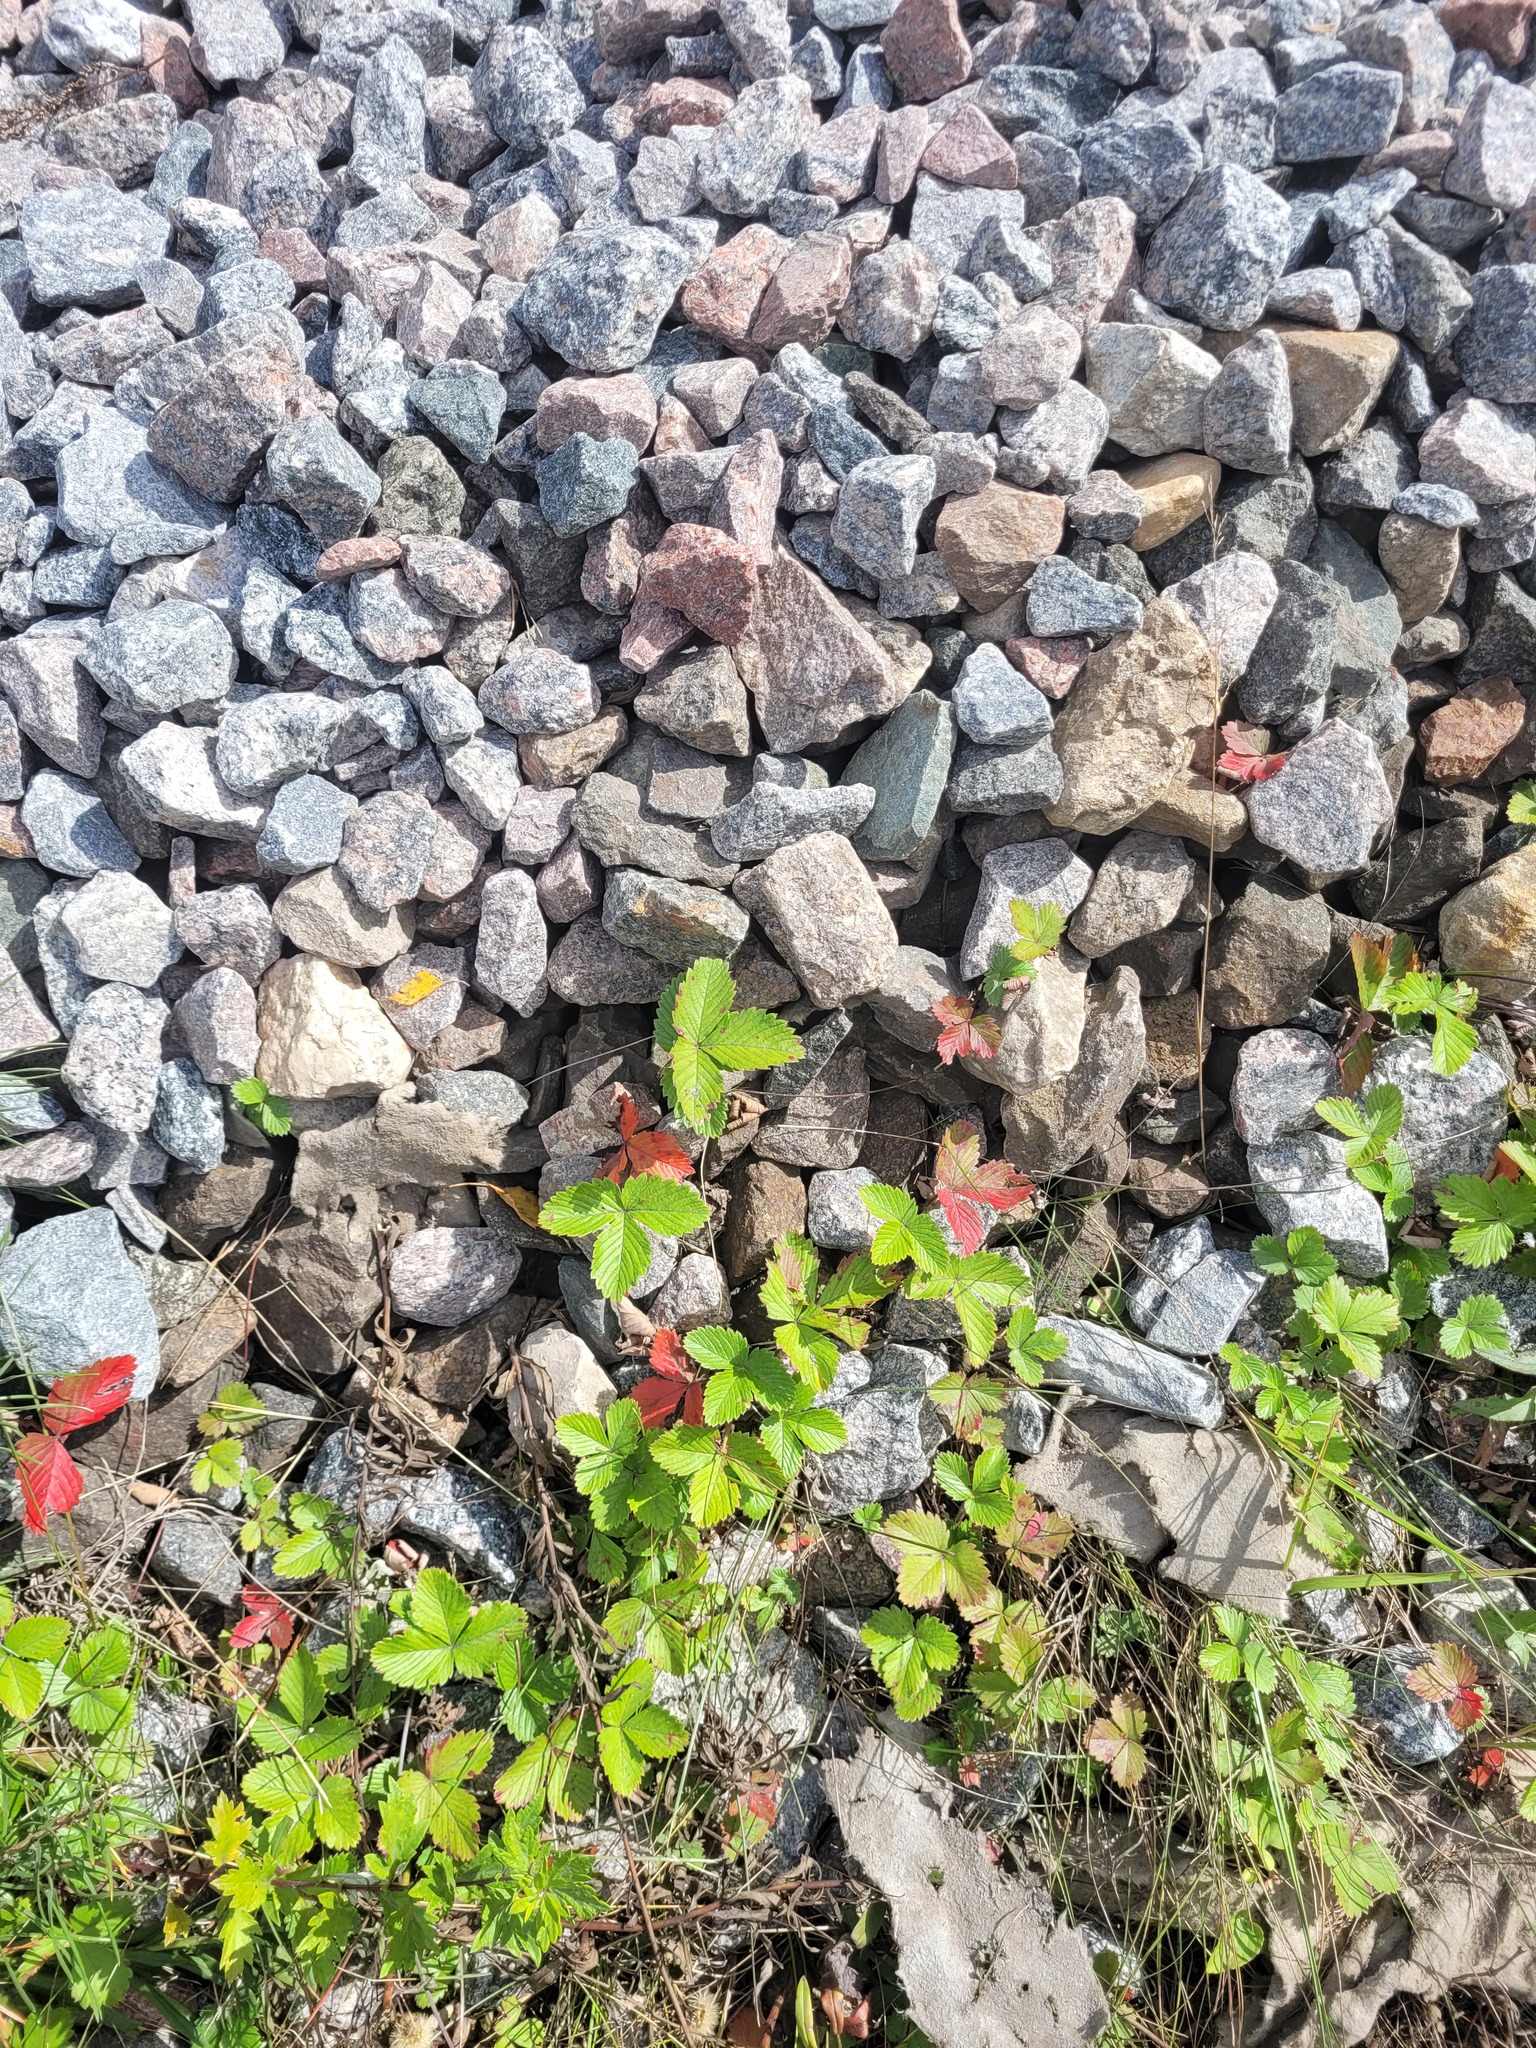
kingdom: Plantae
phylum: Tracheophyta
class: Magnoliopsida
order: Rosales
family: Rosaceae
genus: Fragaria
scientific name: Fragaria vesca
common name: Wild strawberry
